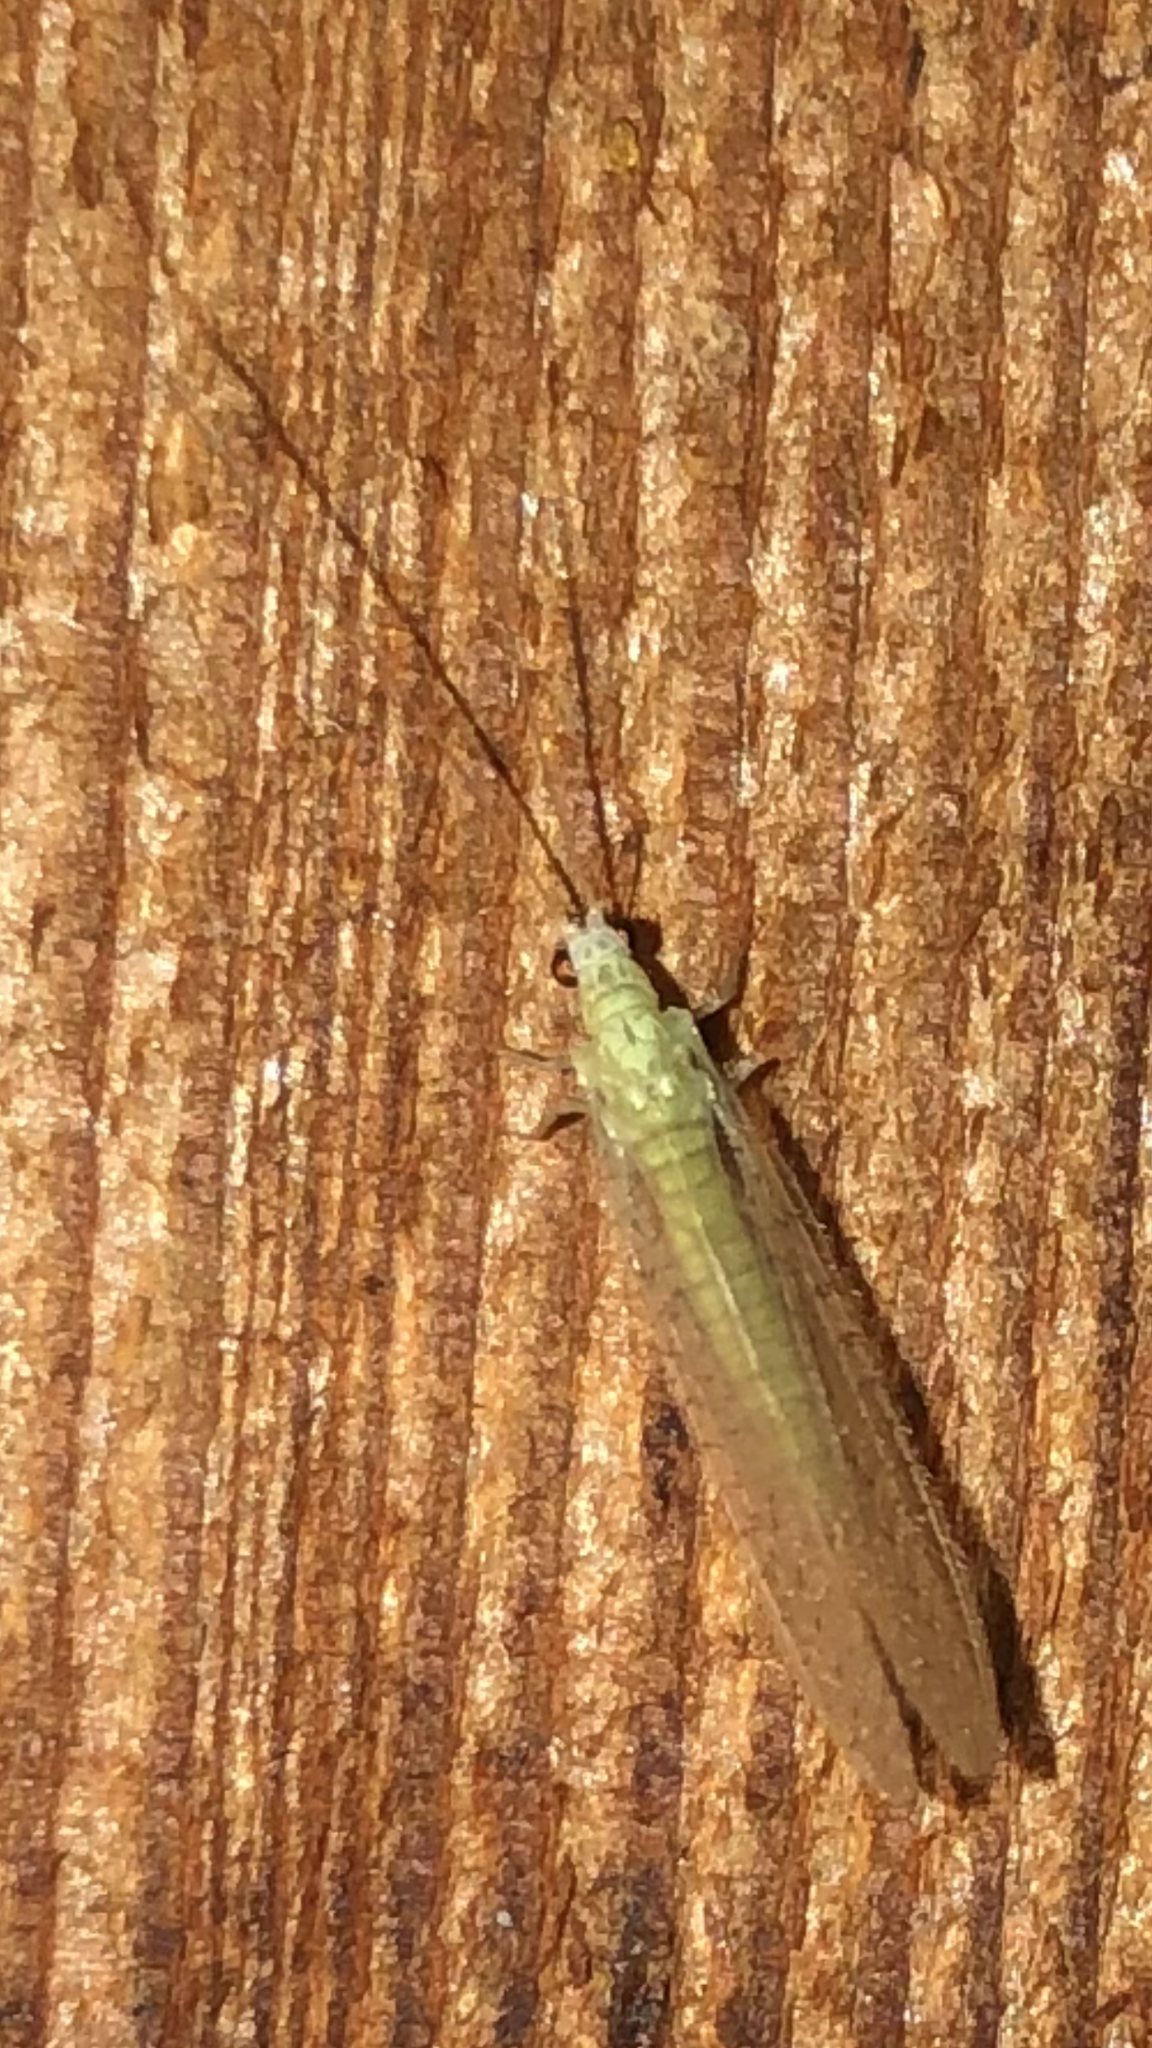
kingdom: Animalia
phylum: Arthropoda
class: Insecta
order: Neuroptera
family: Chrysopidae
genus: Chrysopa
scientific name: Chrysopa nigricornis
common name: Black-horned green lacewing
